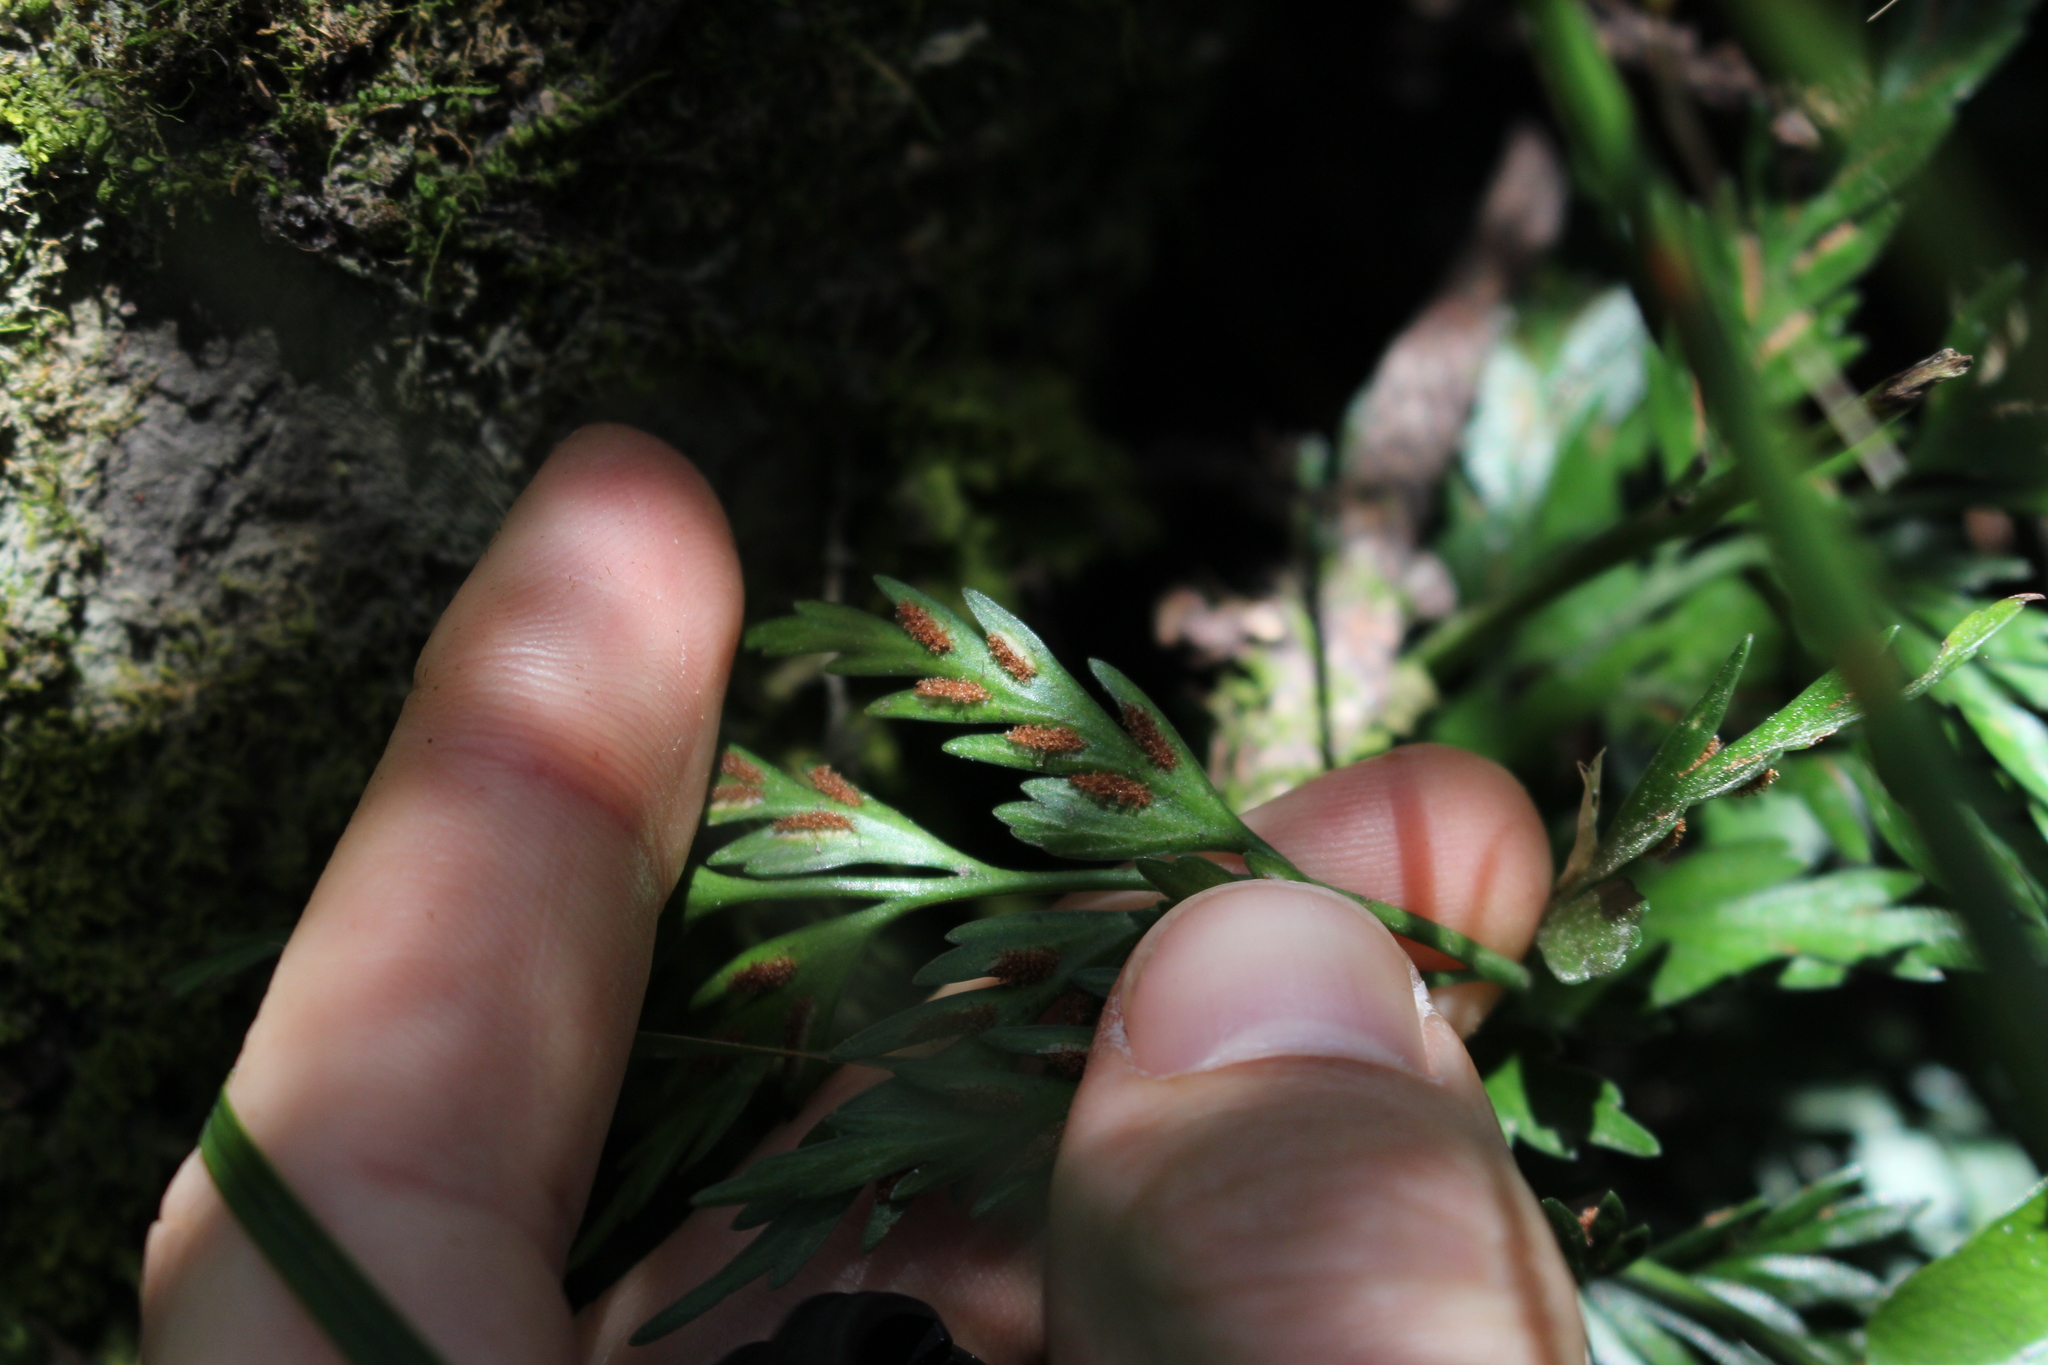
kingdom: Plantae
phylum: Tracheophyta
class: Polypodiopsida
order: Polypodiales
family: Aspleniaceae
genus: Asplenium
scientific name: Asplenium appendiculatum
